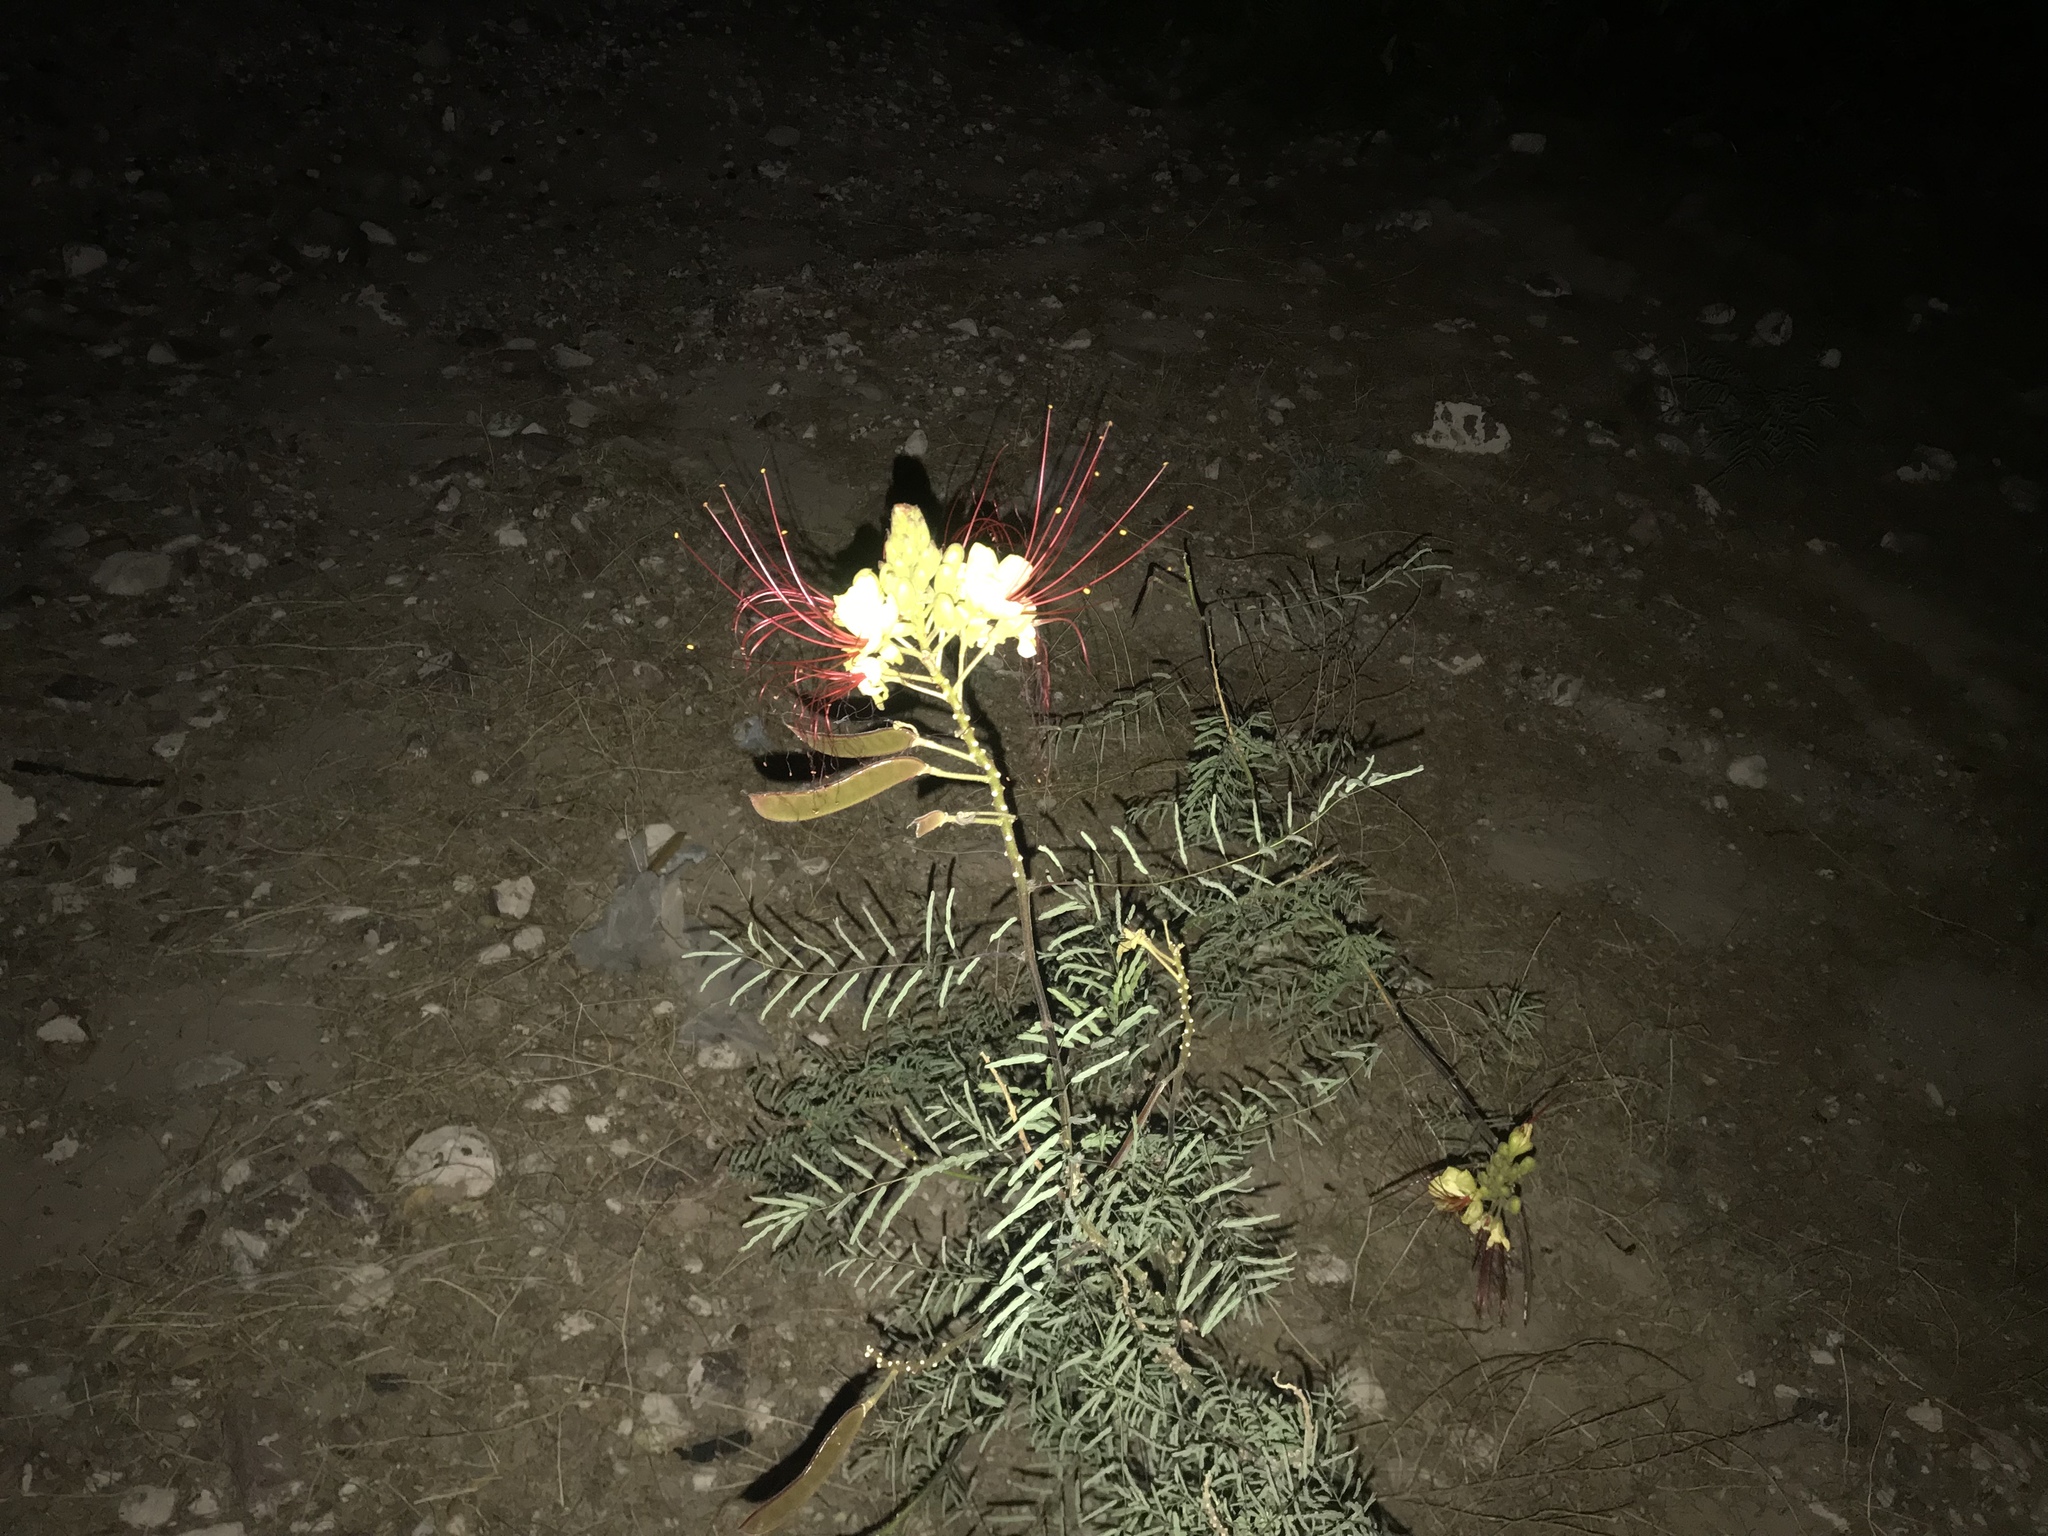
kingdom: Plantae
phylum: Tracheophyta
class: Magnoliopsida
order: Fabales
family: Fabaceae
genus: Erythrostemon
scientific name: Erythrostemon gilliesii
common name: Bird-of-paradise shrub
